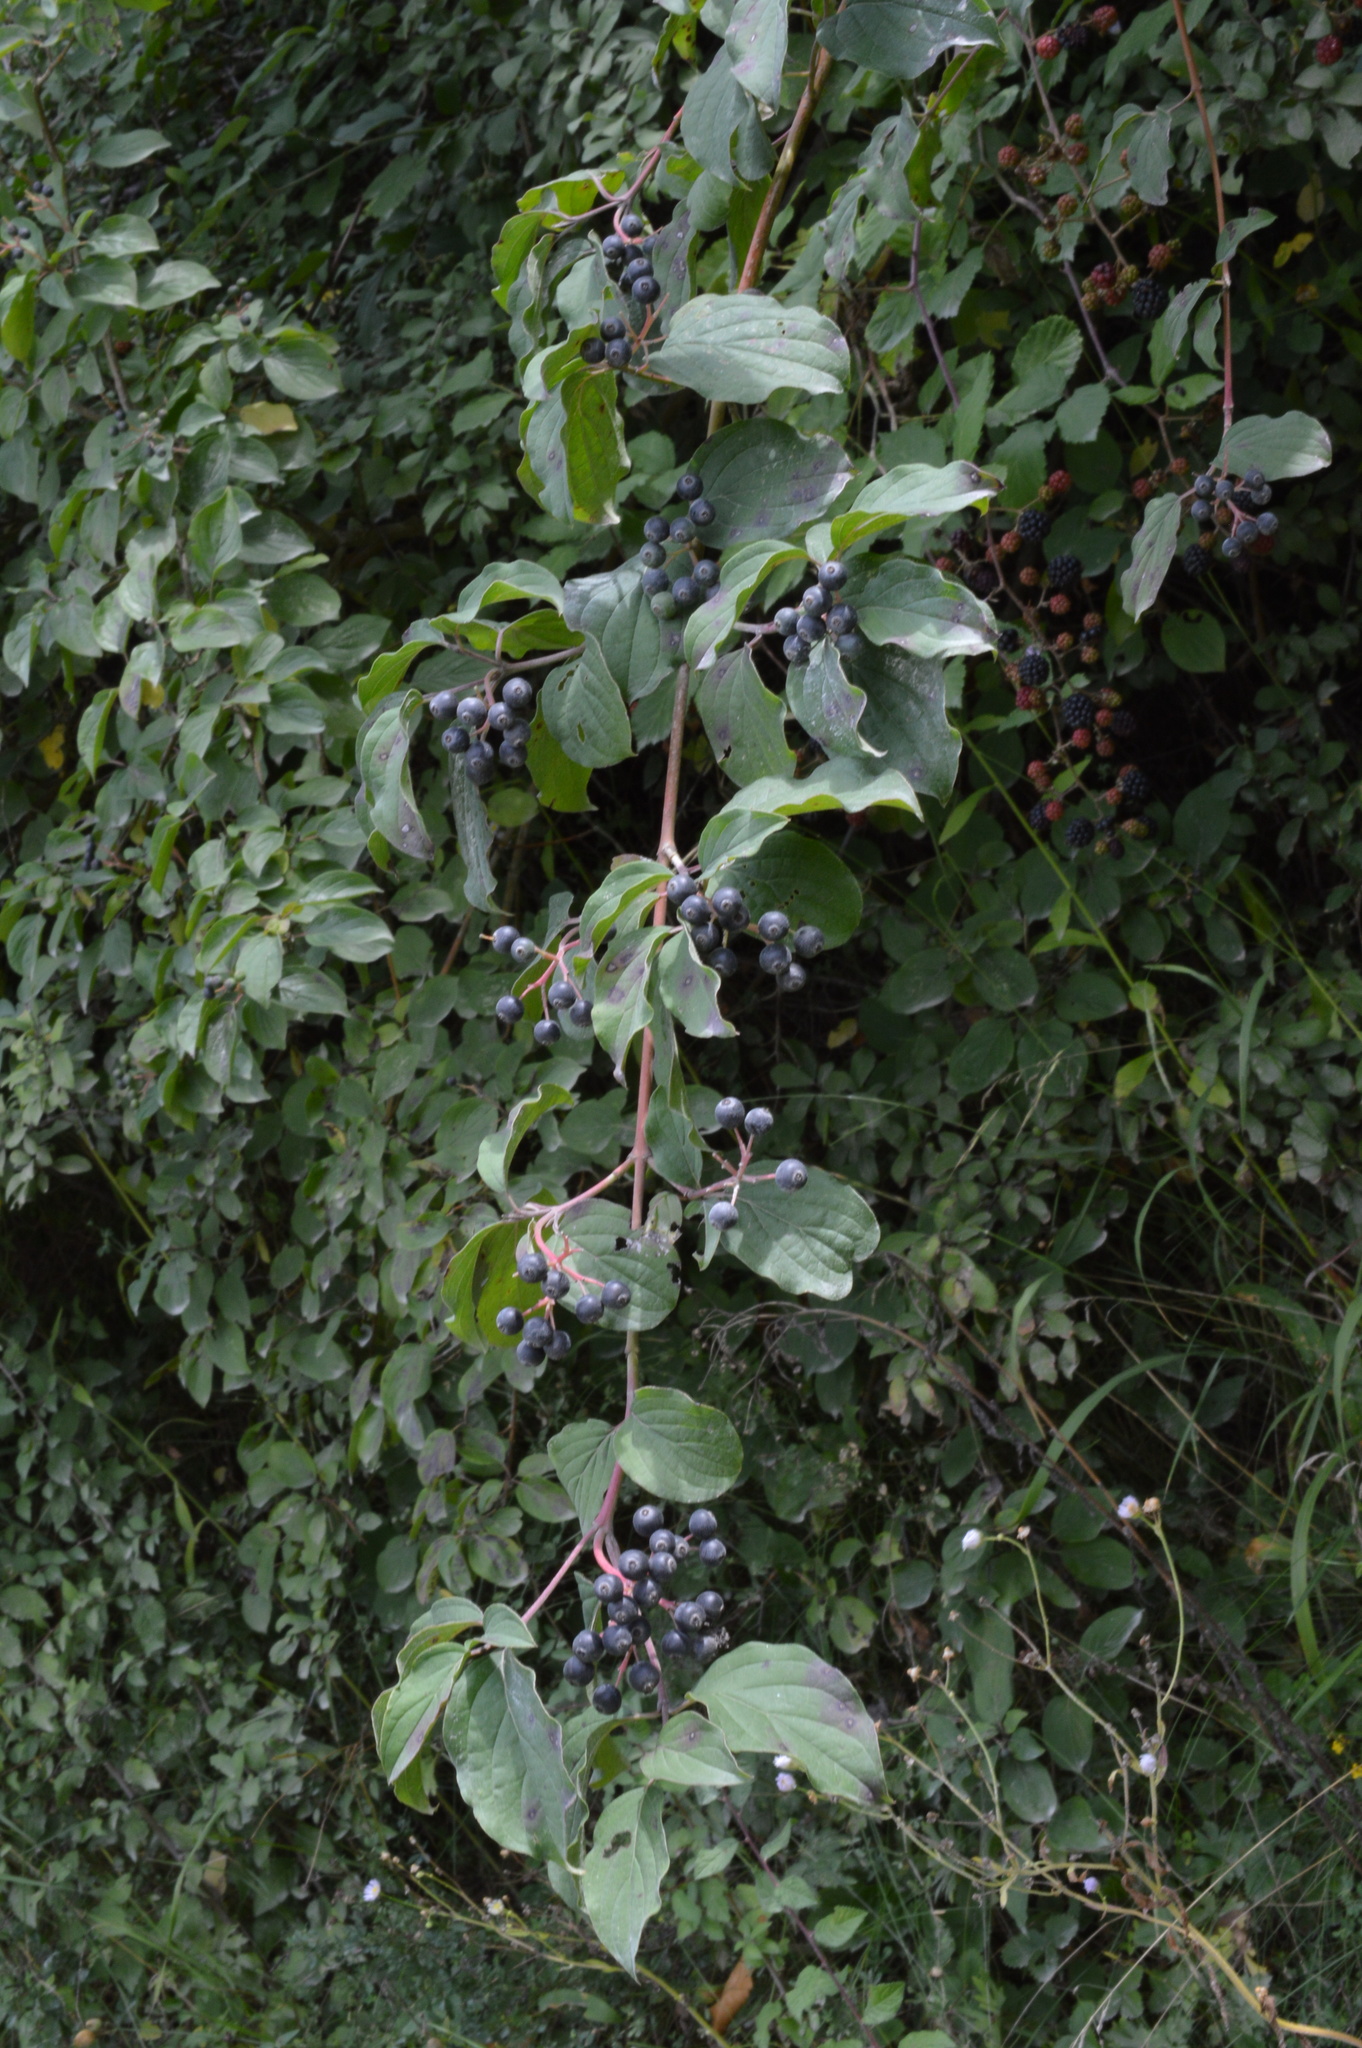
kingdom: Plantae
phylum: Tracheophyta
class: Magnoliopsida
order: Cornales
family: Cornaceae
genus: Cornus
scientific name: Cornus sanguinea
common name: Dogwood
